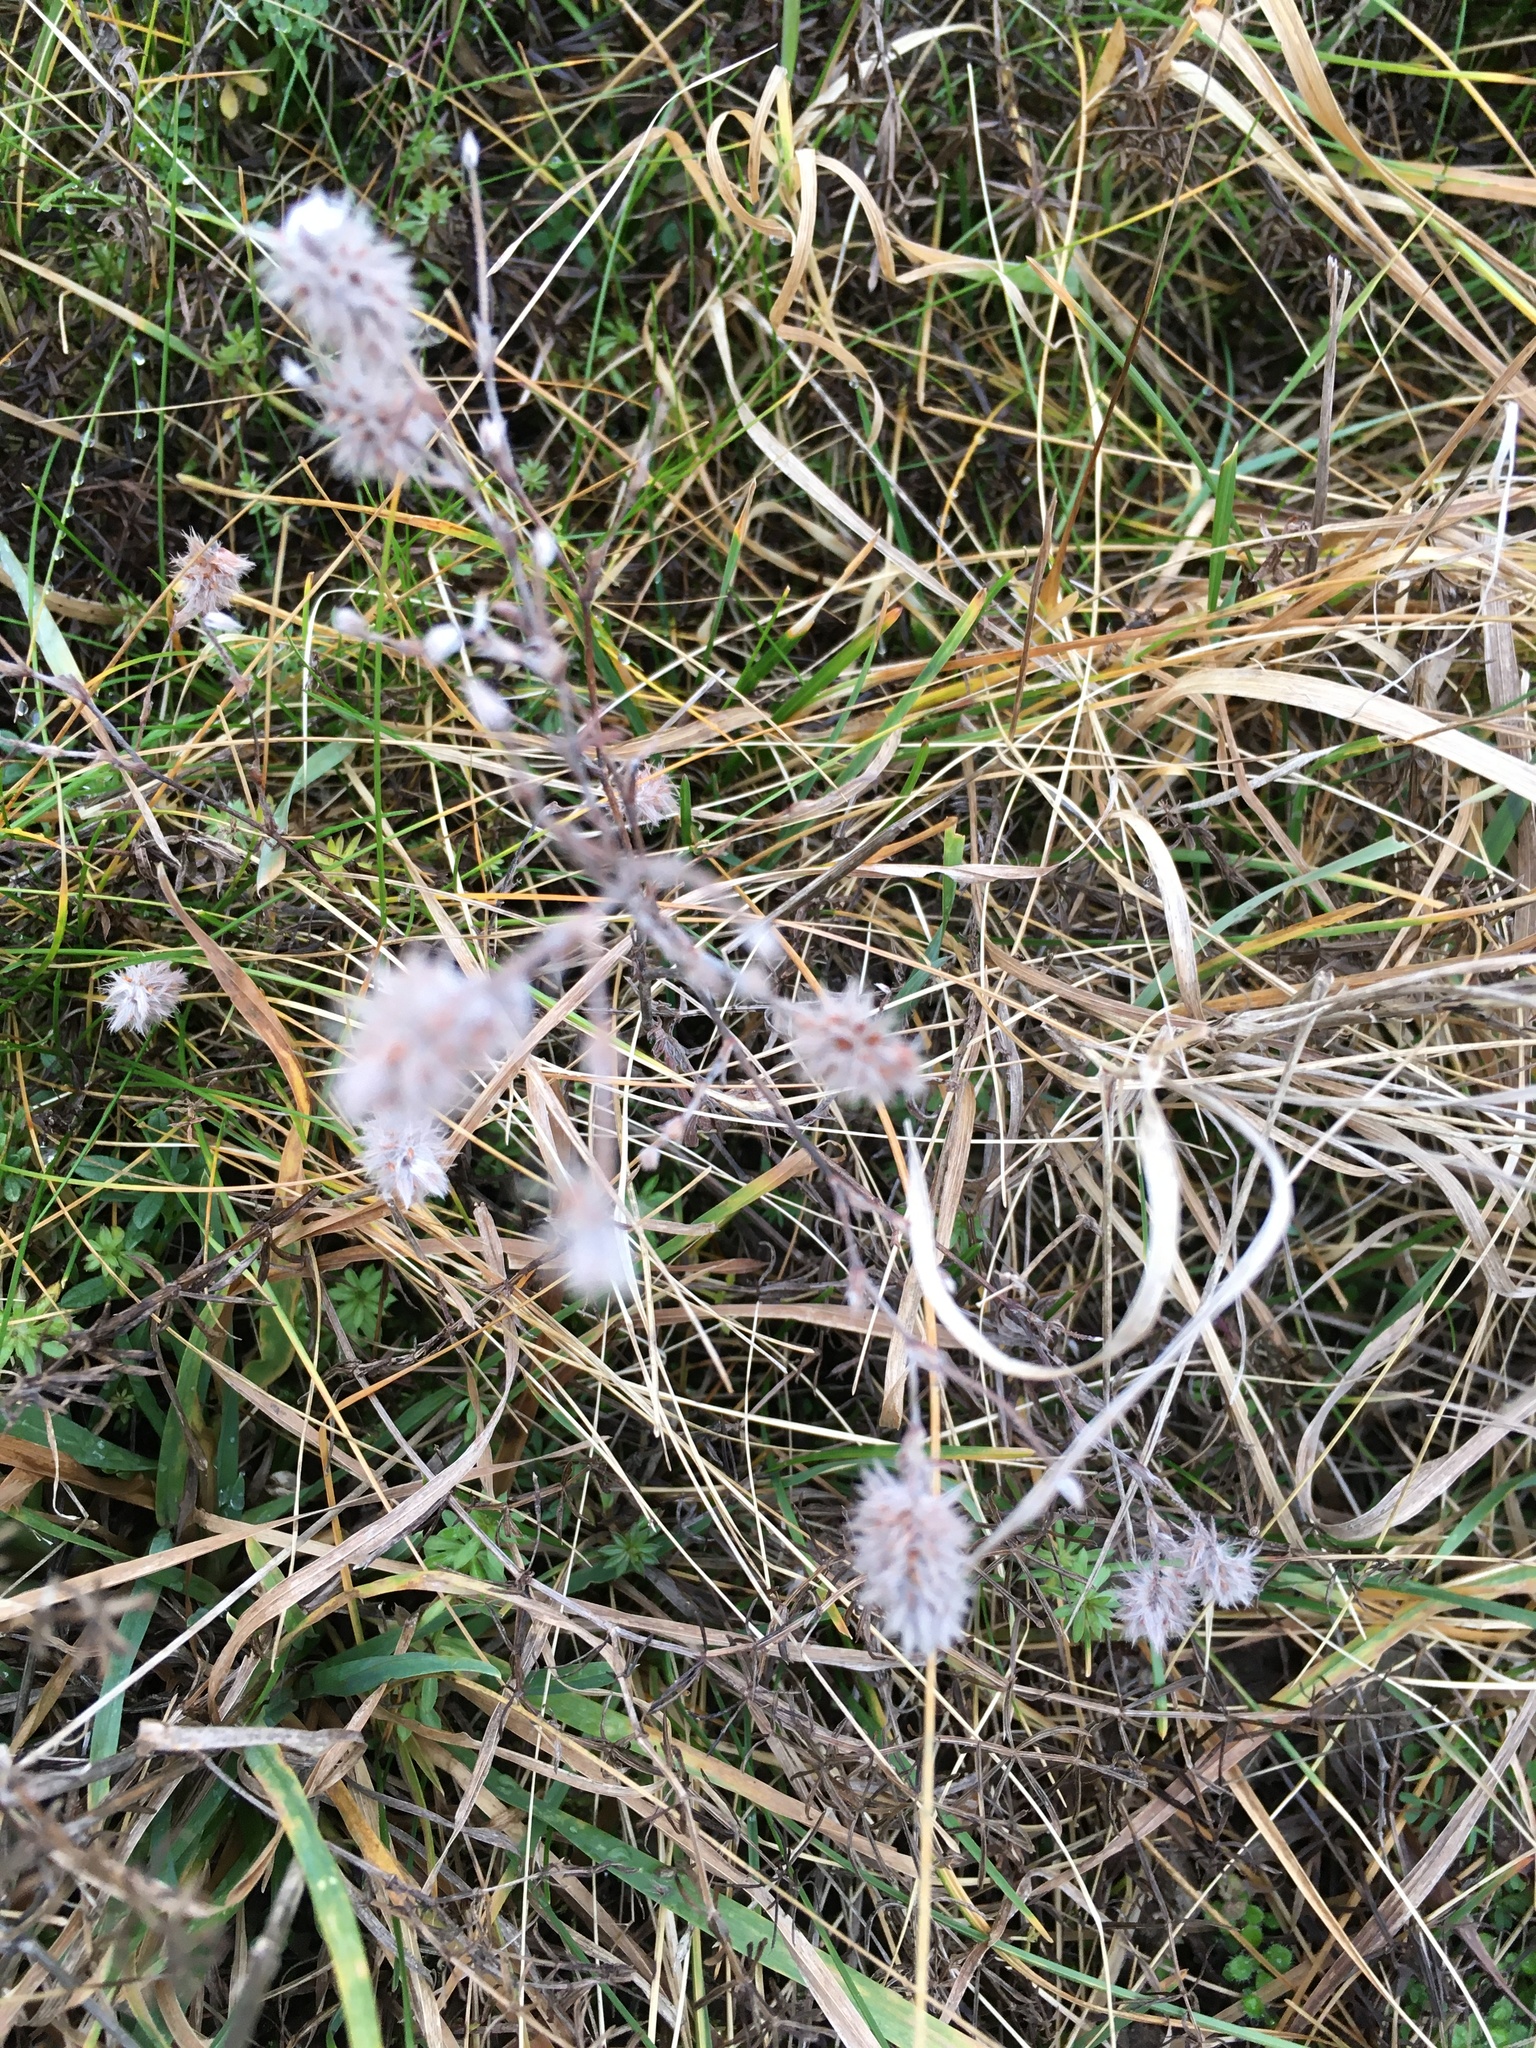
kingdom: Plantae
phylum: Tracheophyta
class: Magnoliopsida
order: Fabales
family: Fabaceae
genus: Trifolium
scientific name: Trifolium arvense
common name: Hare's-foot clover
